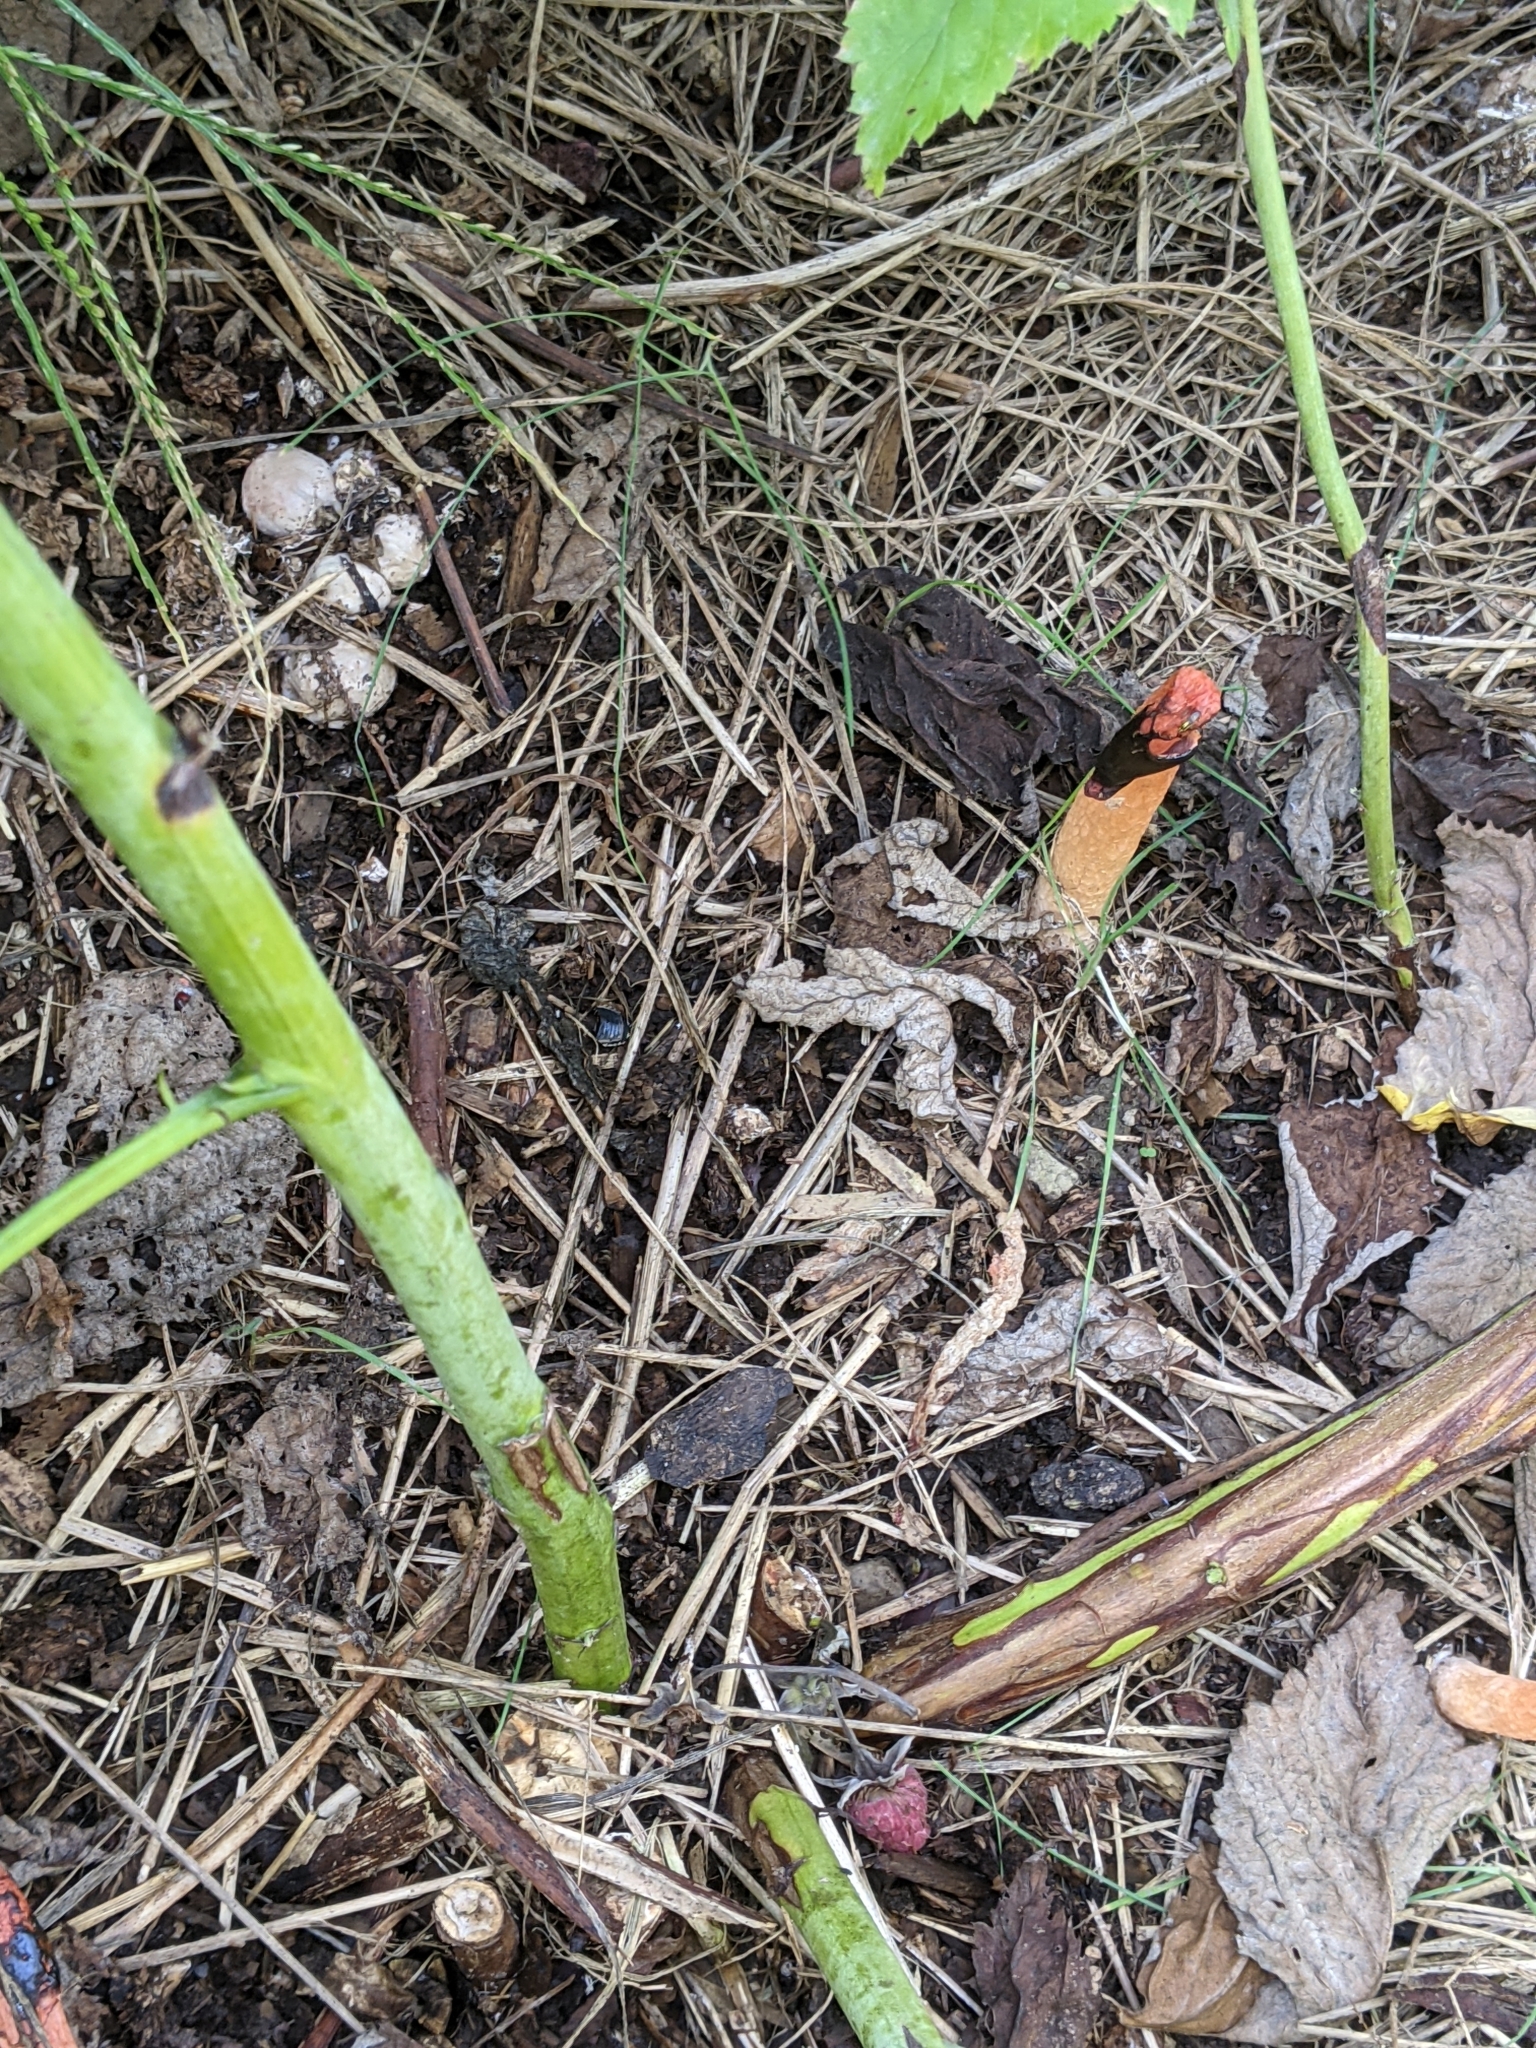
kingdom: Fungi
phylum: Basidiomycota
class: Agaricomycetes
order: Phallales
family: Phallaceae
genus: Phallus
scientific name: Phallus rugulosus
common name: Wrinkly stinkhorn
